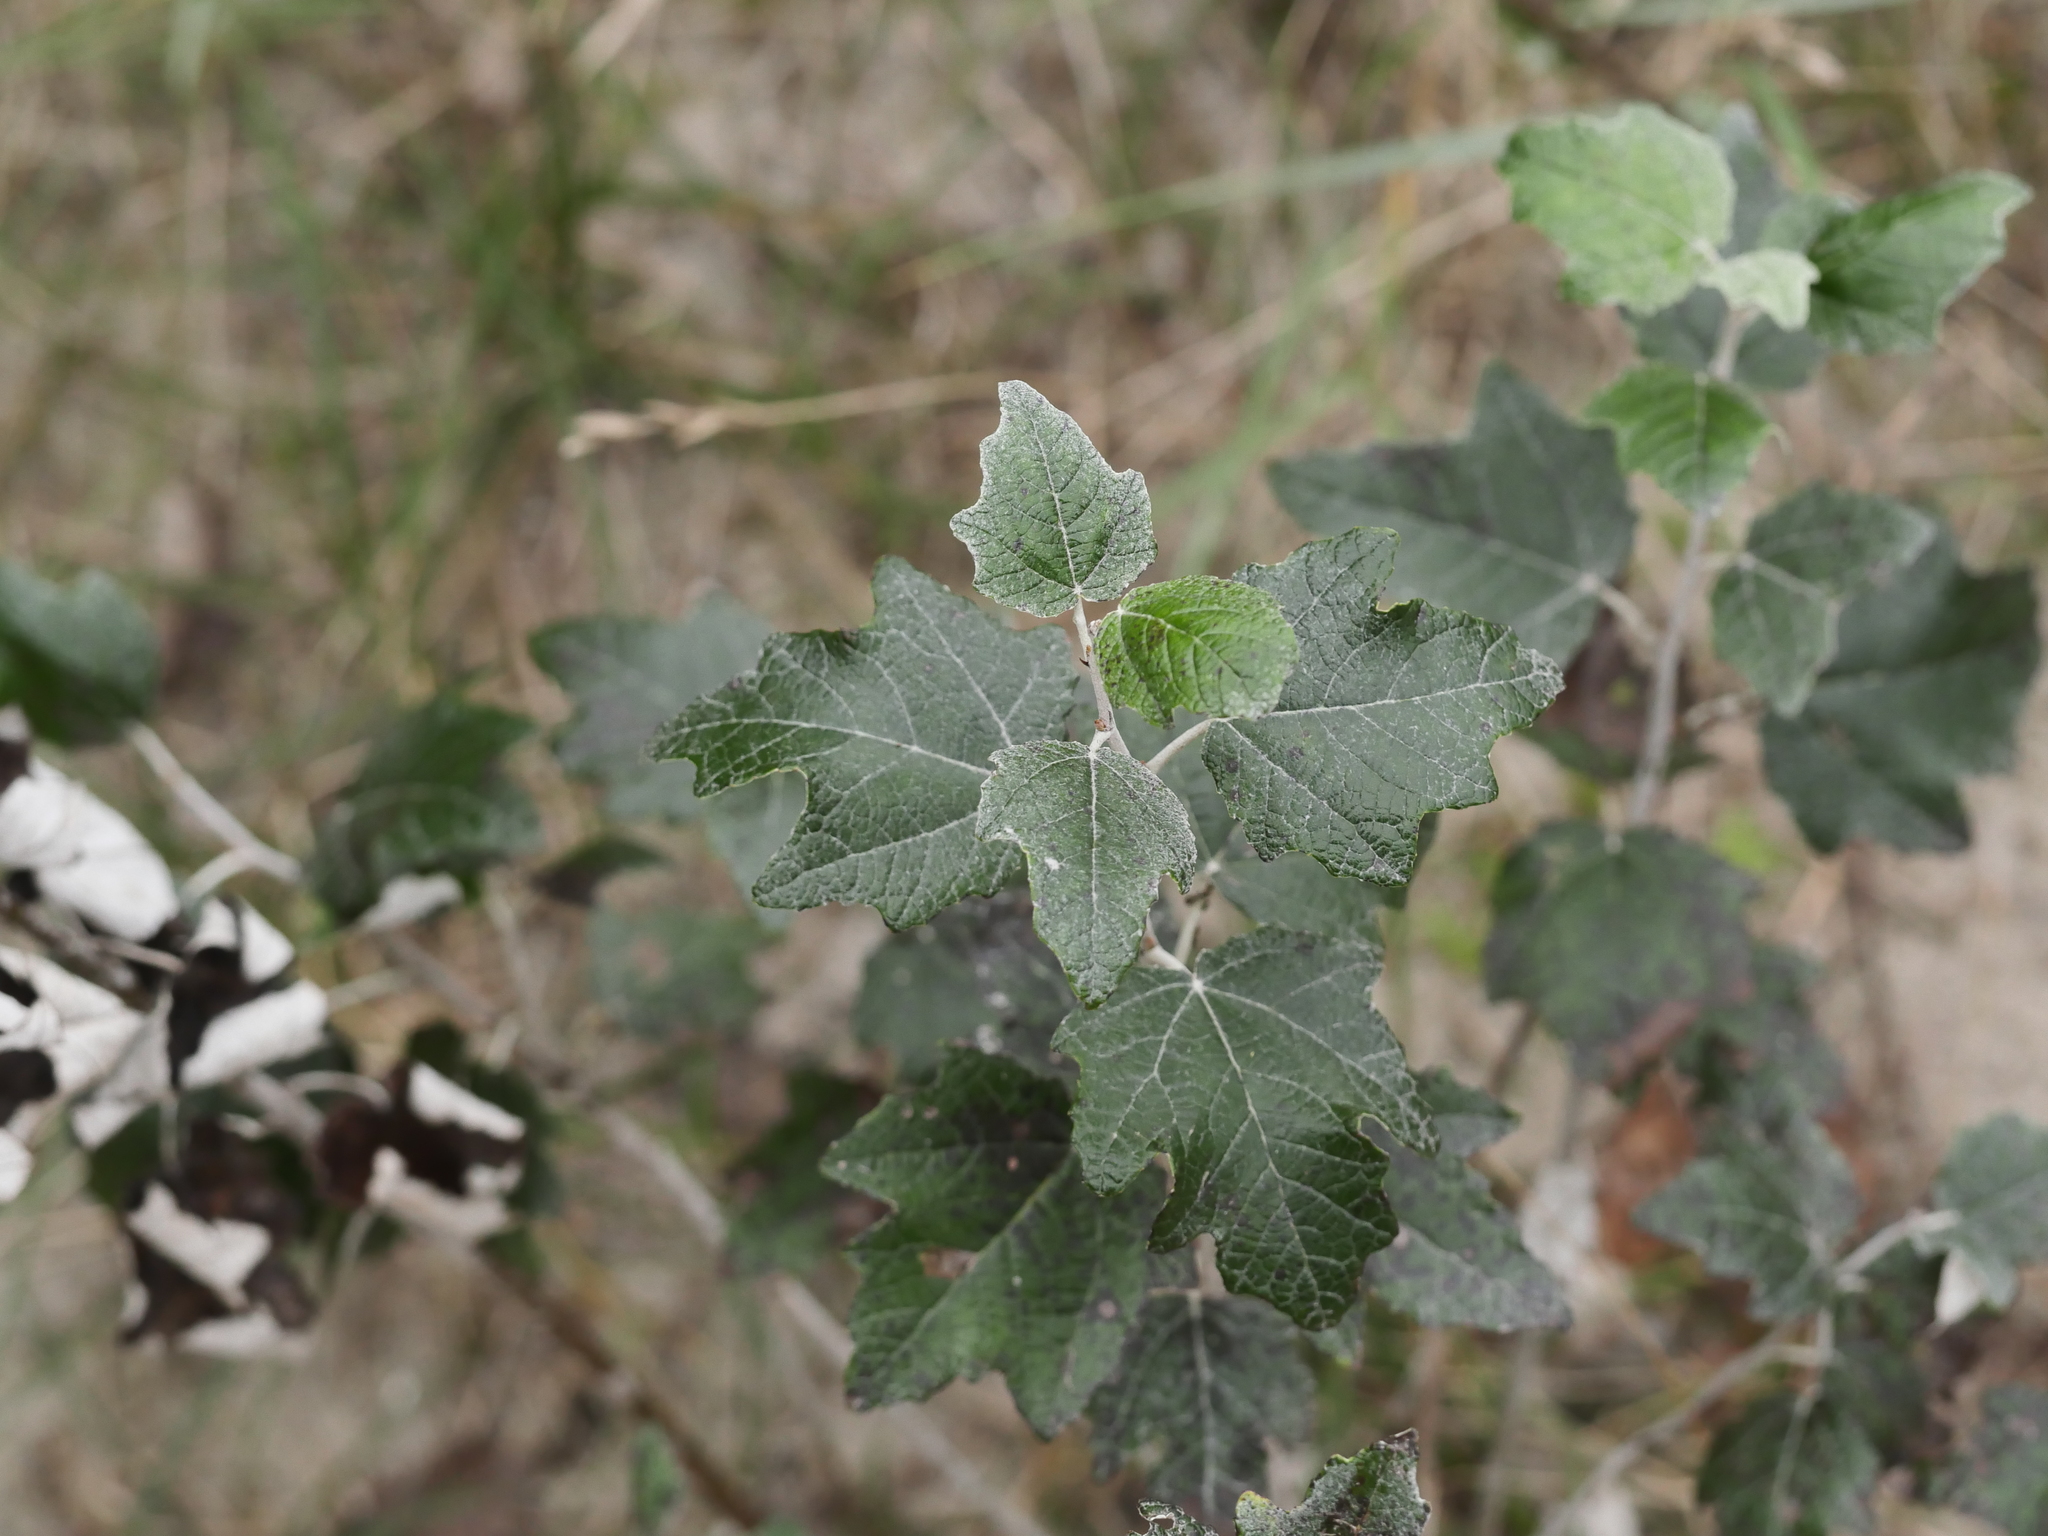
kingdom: Plantae
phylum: Tracheophyta
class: Magnoliopsida
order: Malpighiales
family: Salicaceae
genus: Populus
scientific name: Populus alba
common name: White poplar
